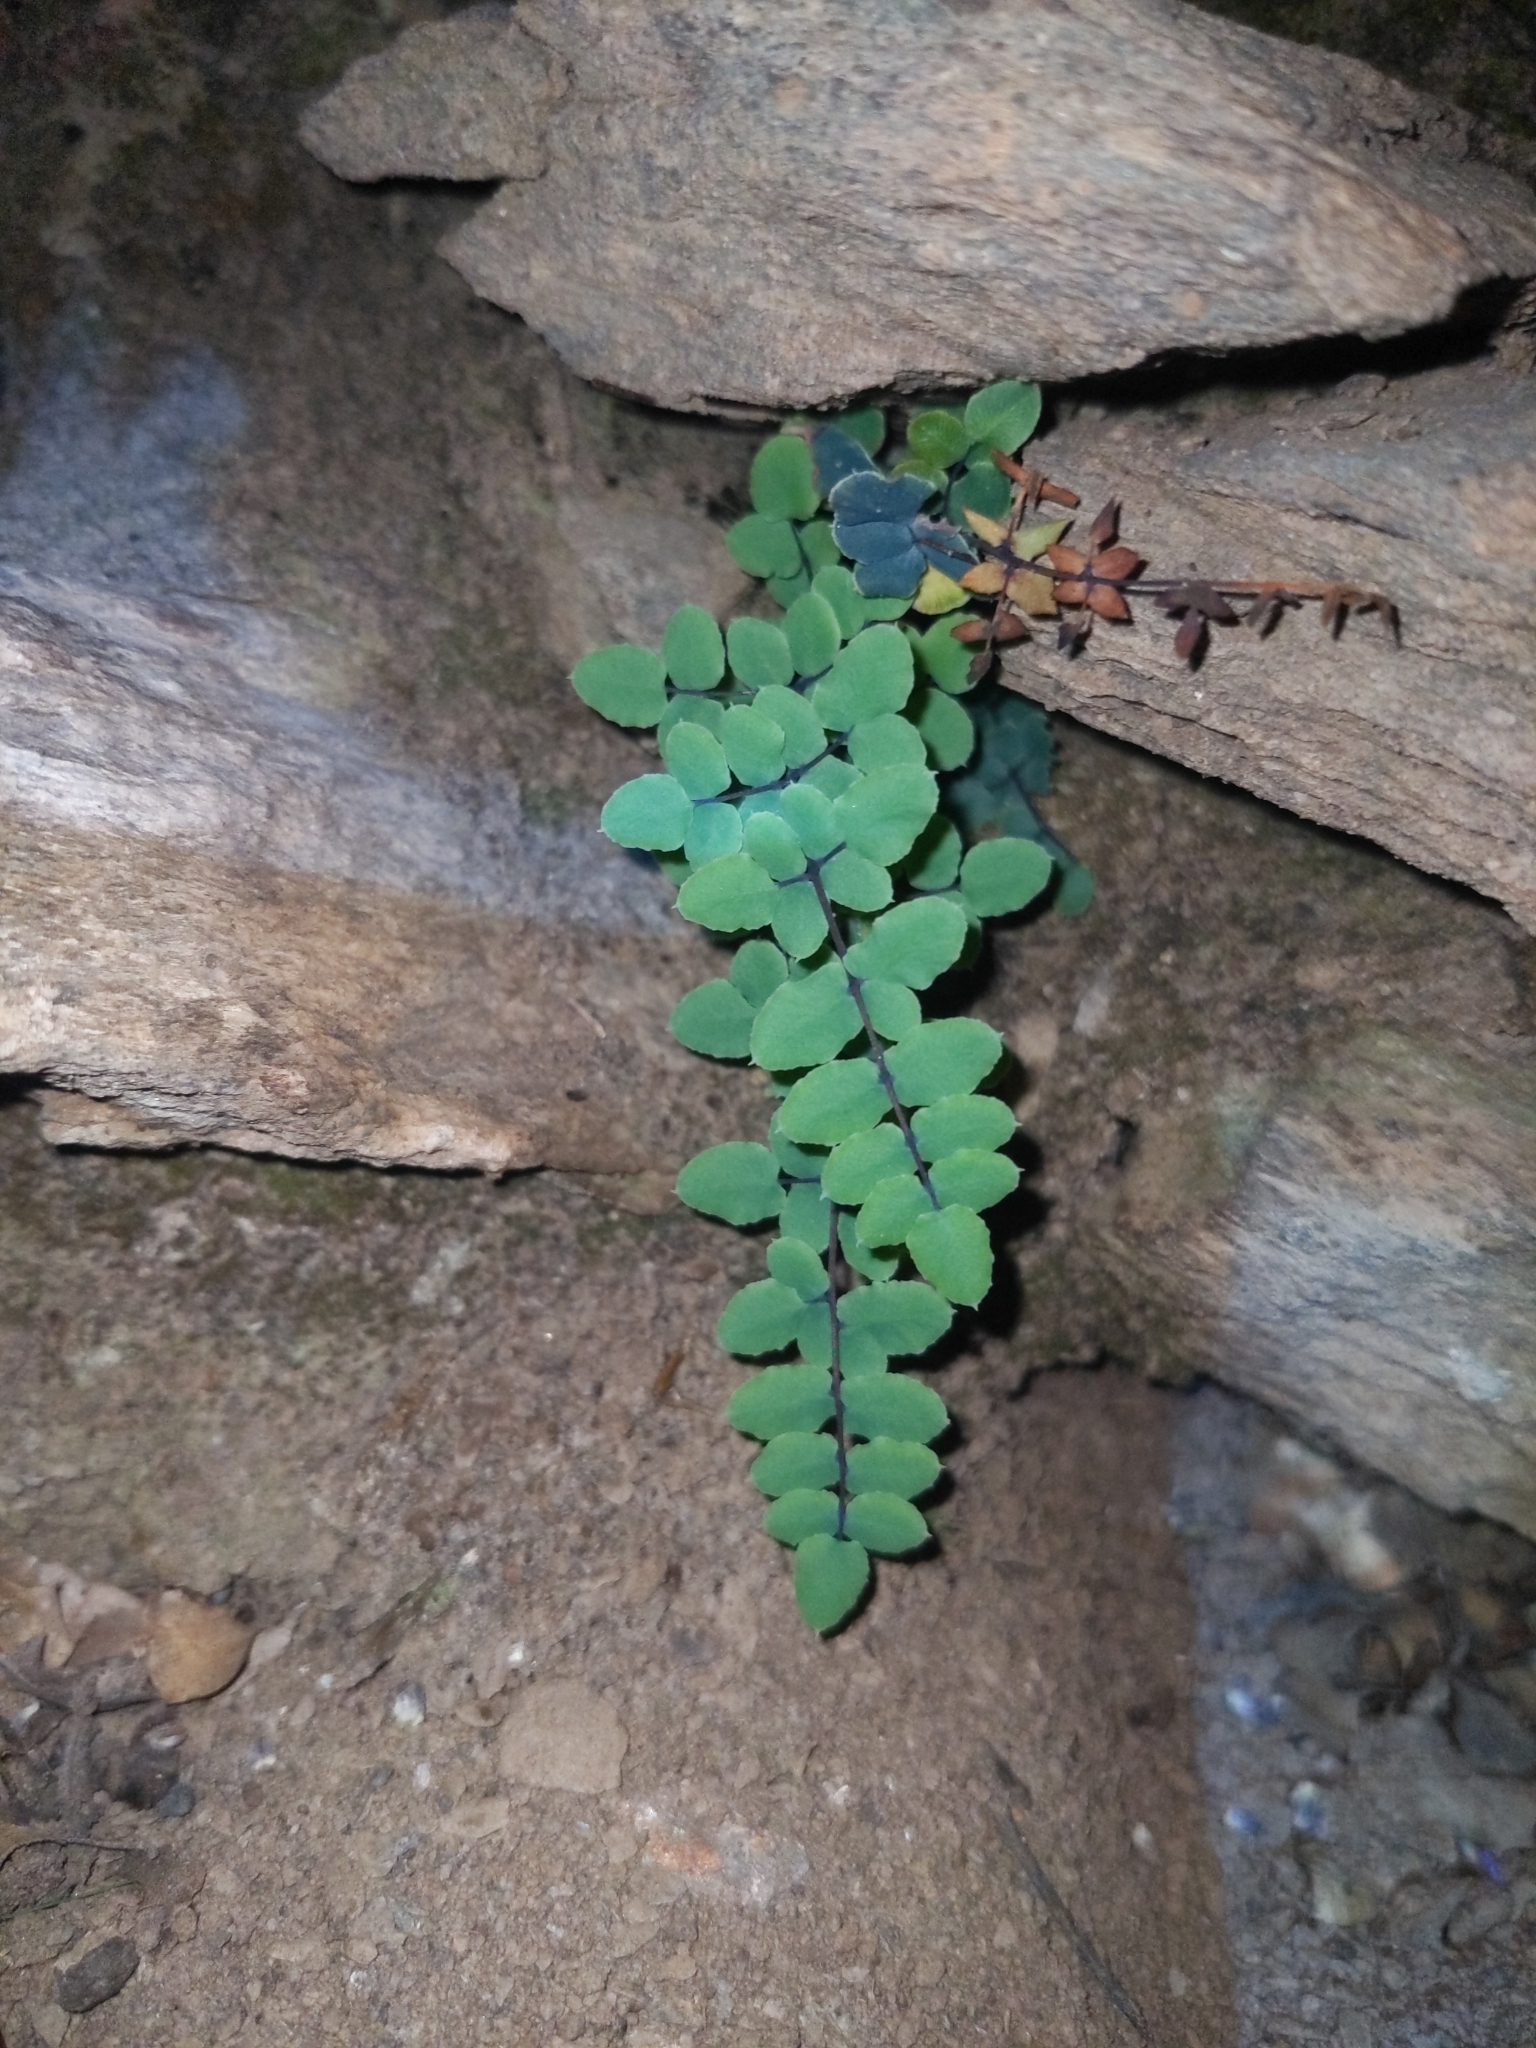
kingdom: Plantae
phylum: Tracheophyta
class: Polypodiopsida
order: Polypodiales
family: Pteridaceae
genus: Pellaea
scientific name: Pellaea truncata
